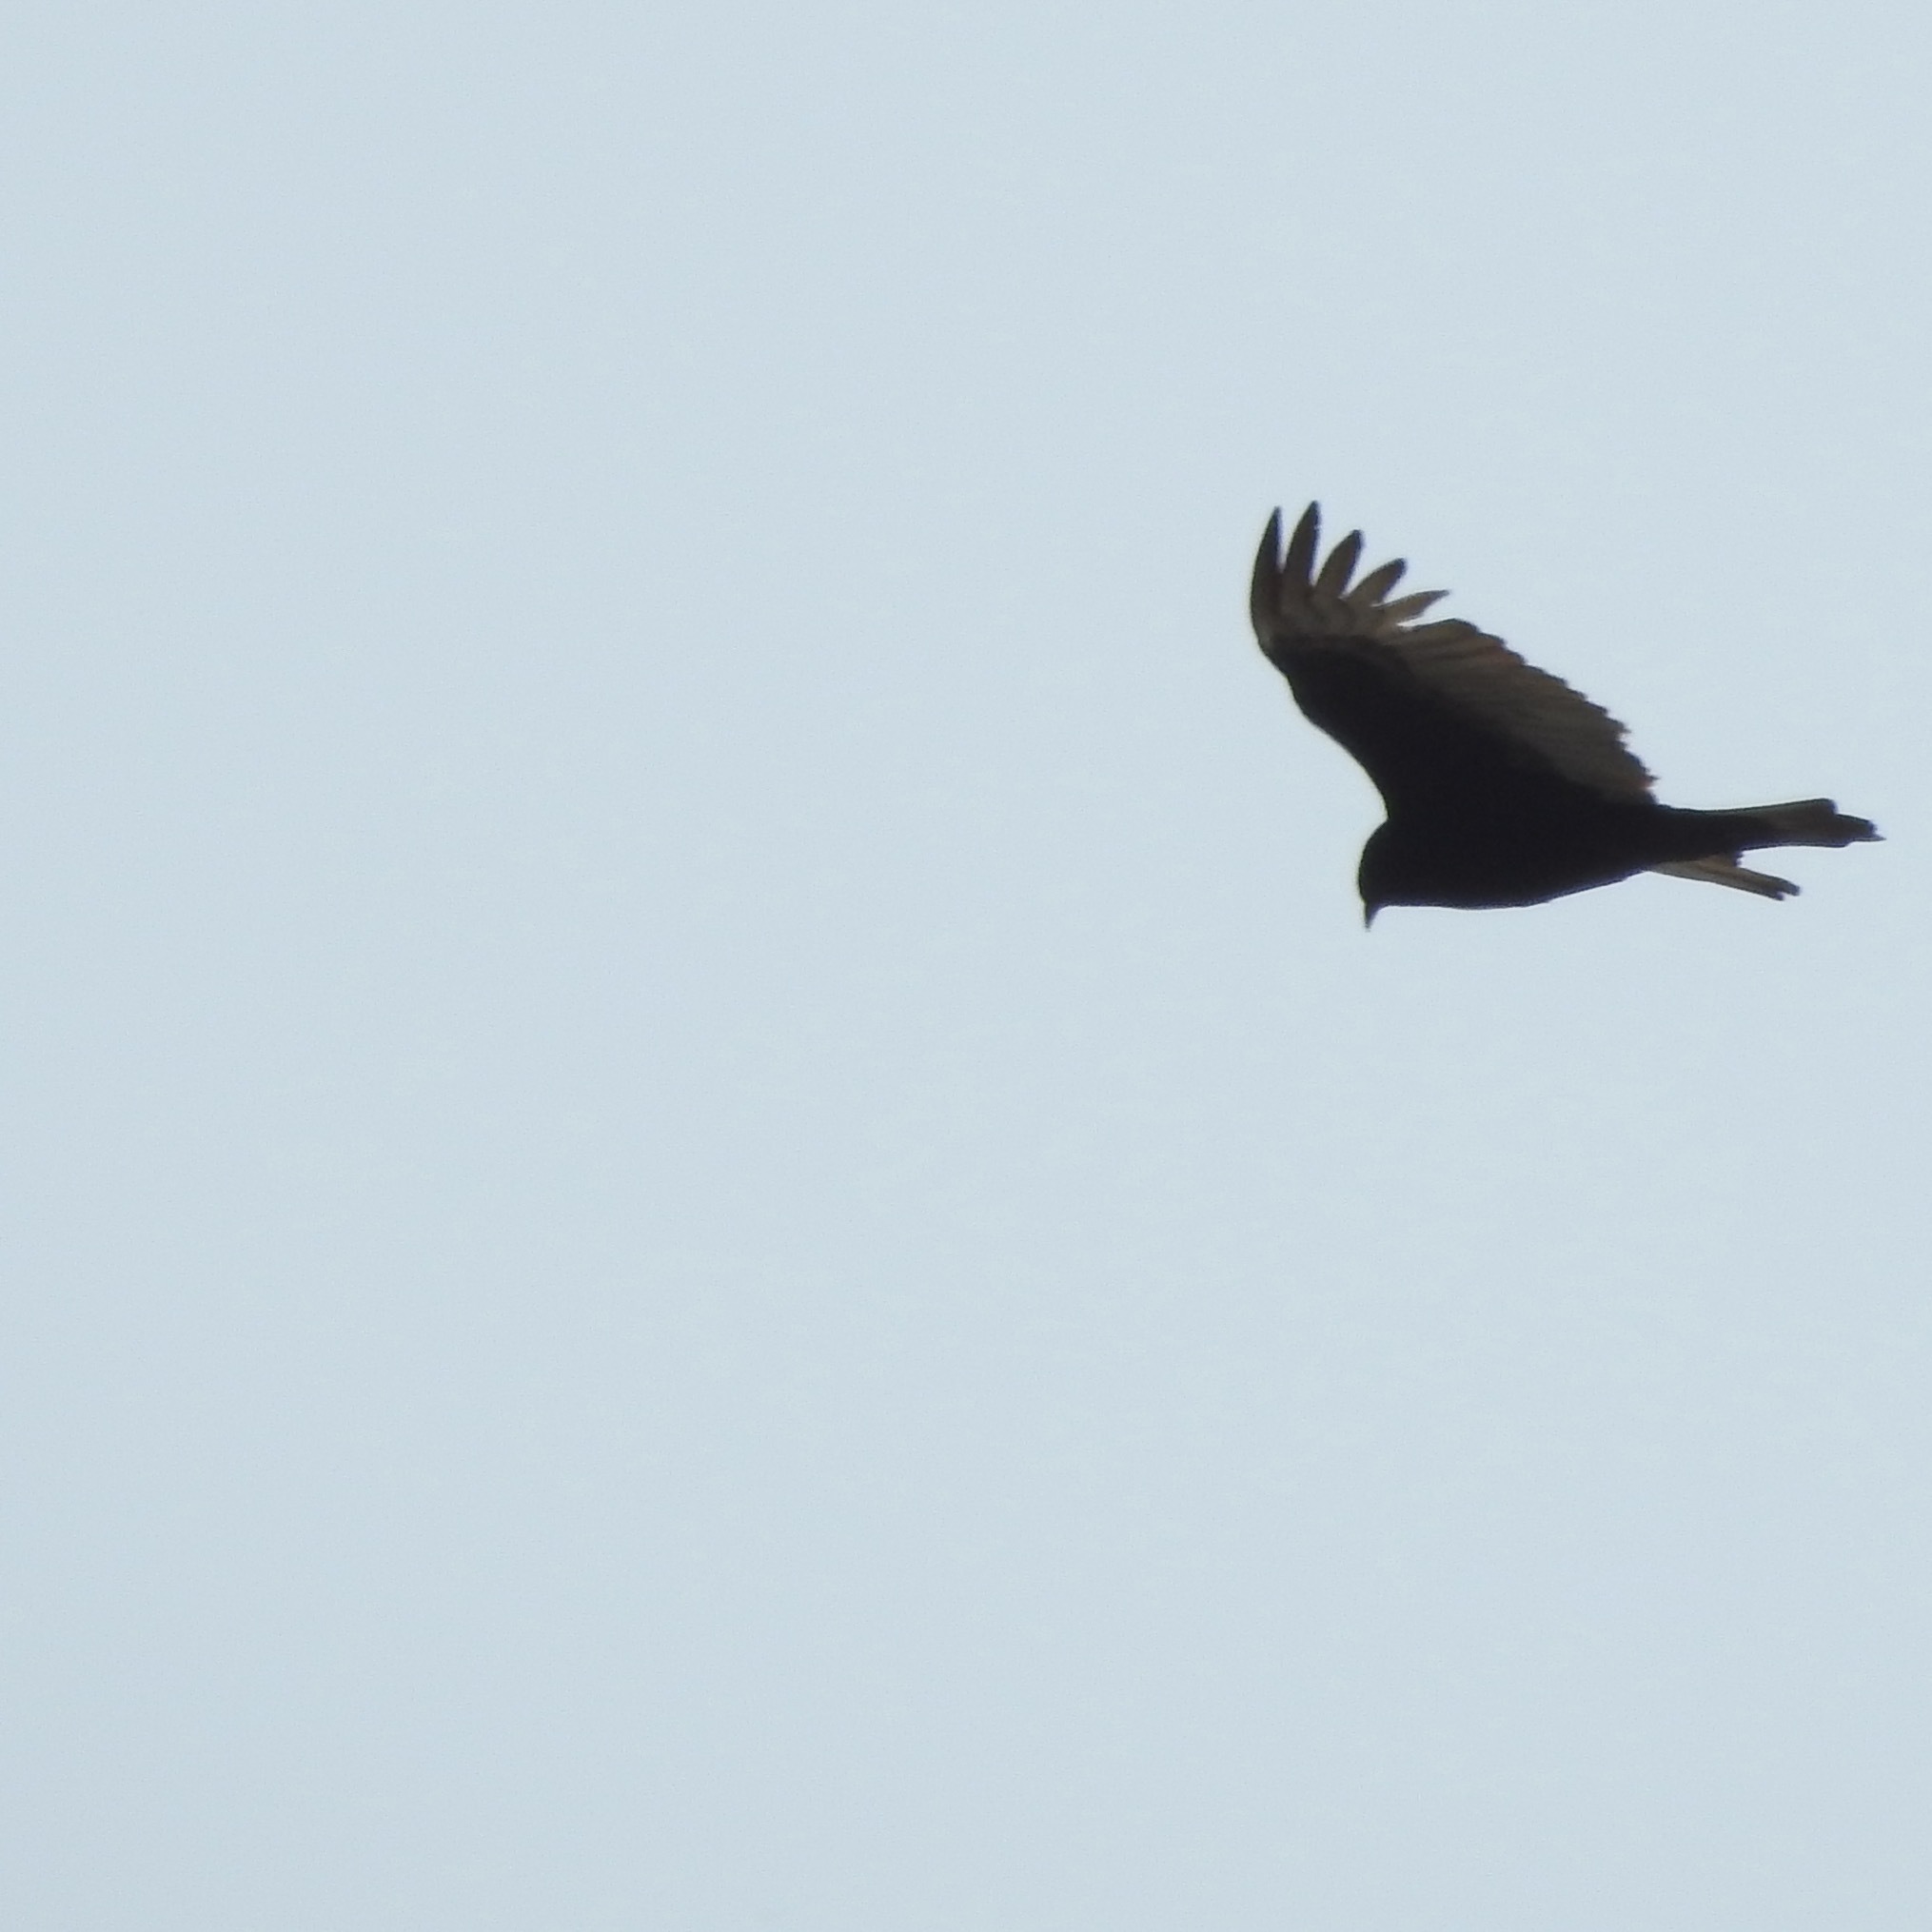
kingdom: Animalia
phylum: Chordata
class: Aves
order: Accipitriformes
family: Cathartidae
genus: Cathartes
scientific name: Cathartes aura
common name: Turkey vulture
